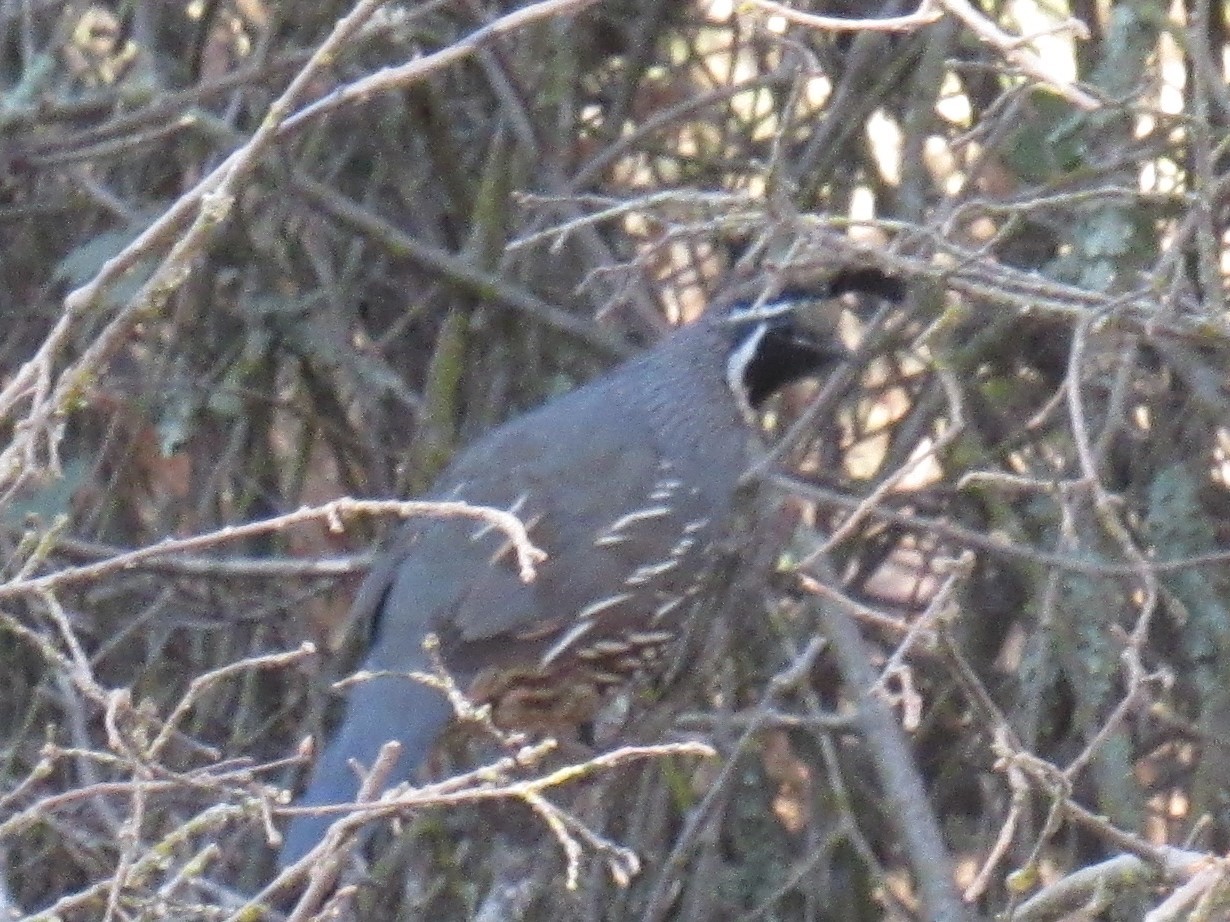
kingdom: Animalia
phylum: Chordata
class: Aves
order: Galliformes
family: Odontophoridae
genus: Callipepla
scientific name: Callipepla californica
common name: California quail
